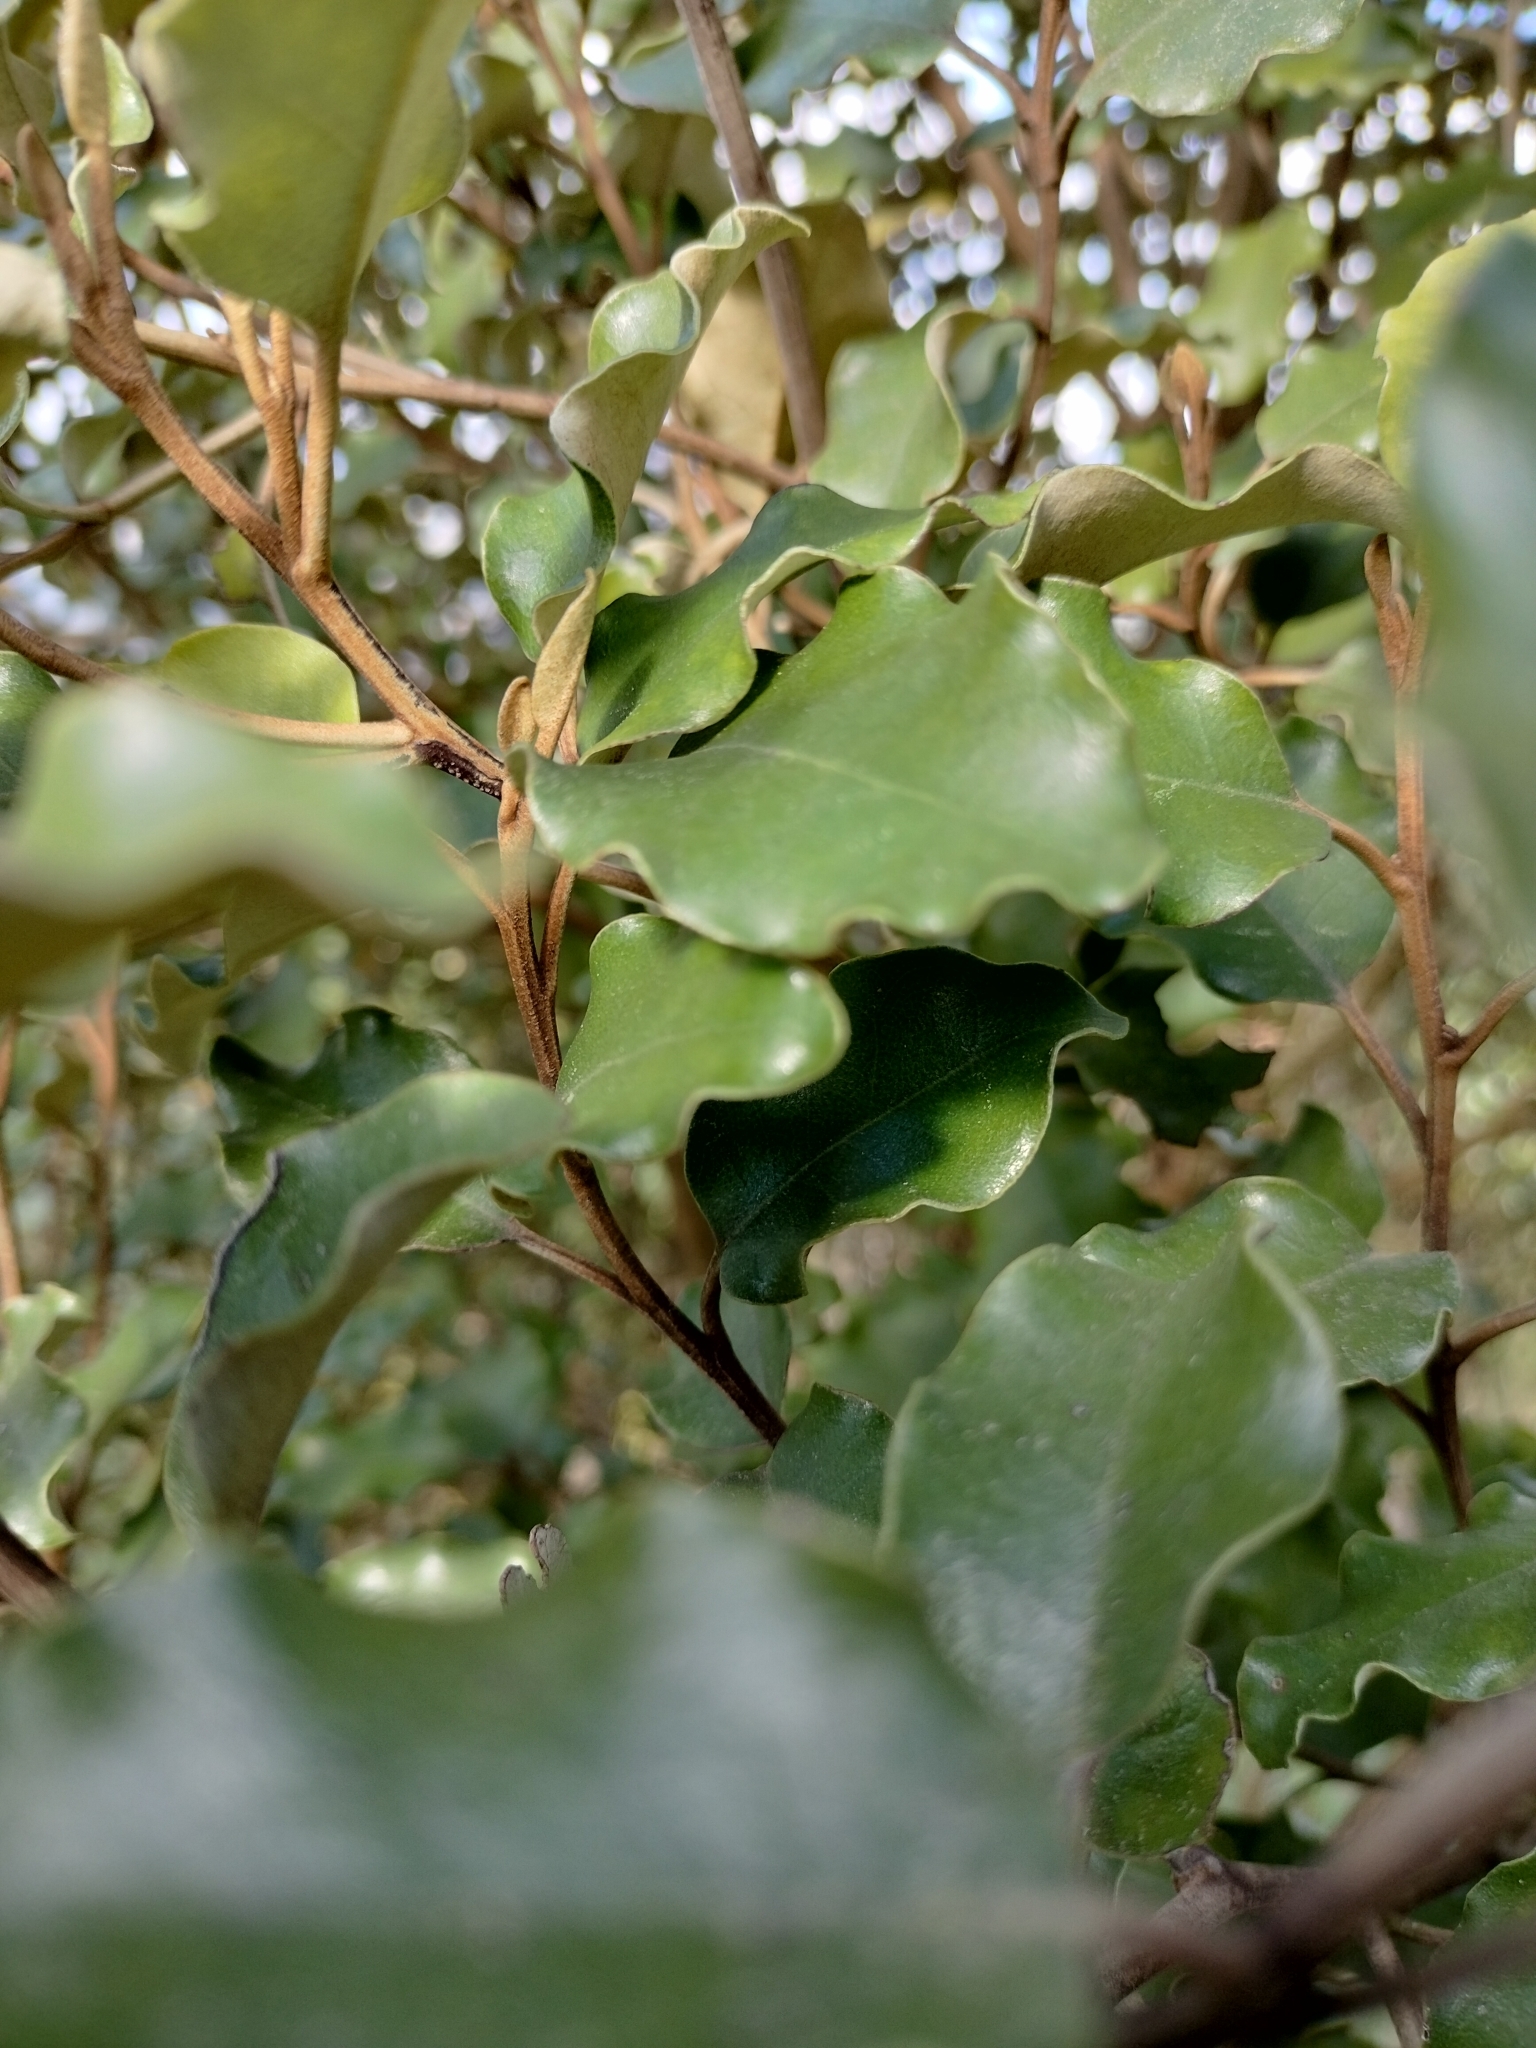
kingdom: Plantae
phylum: Tracheophyta
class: Magnoliopsida
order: Asterales
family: Asteraceae
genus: Olearia
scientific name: Olearia paniculata
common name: Akiraho
